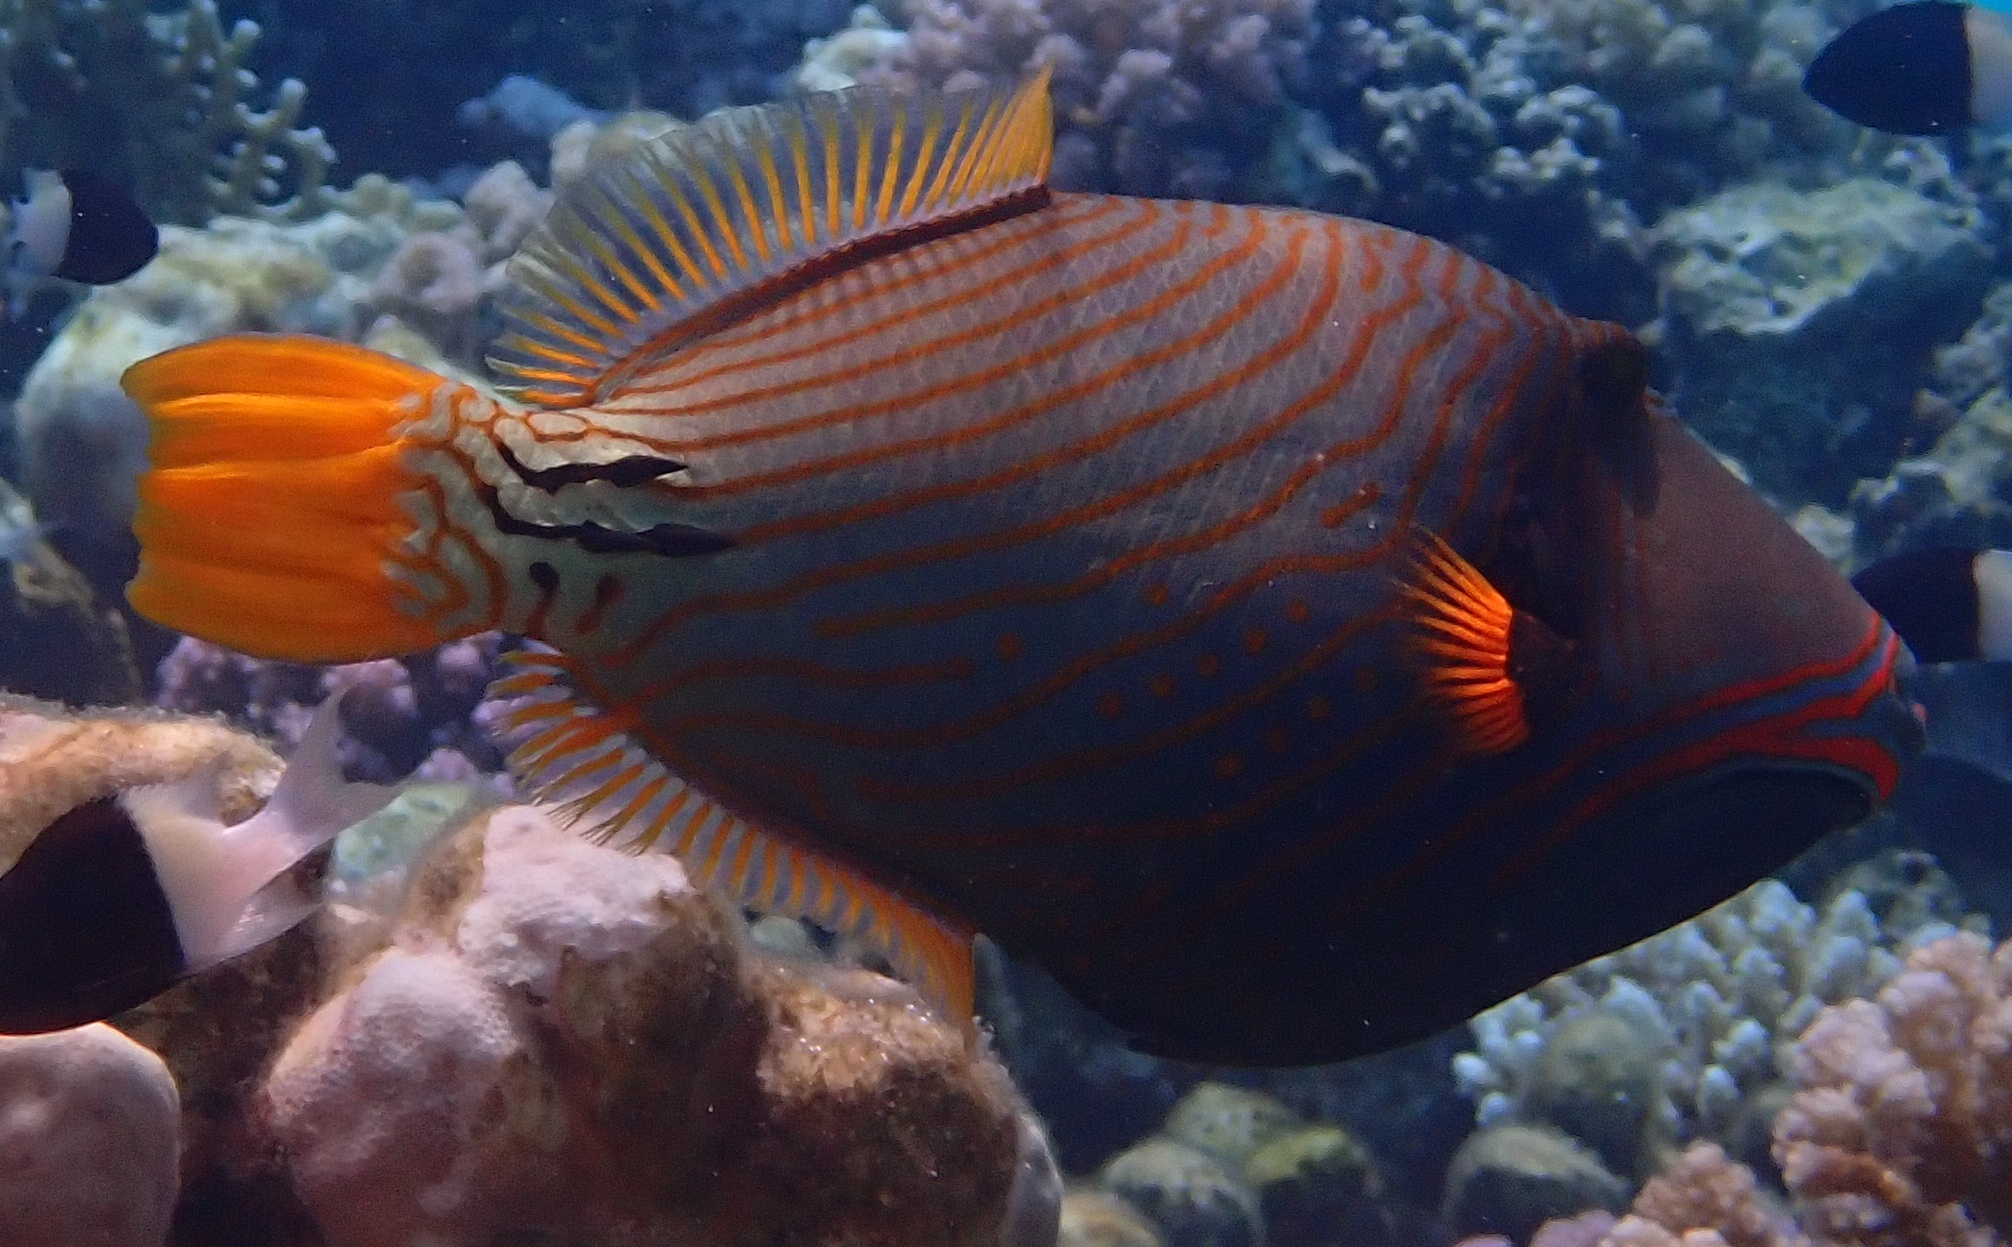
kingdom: Animalia
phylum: Chordata
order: Tetraodontiformes
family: Balistidae
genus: Balistapus
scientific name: Balistapus undulatus
